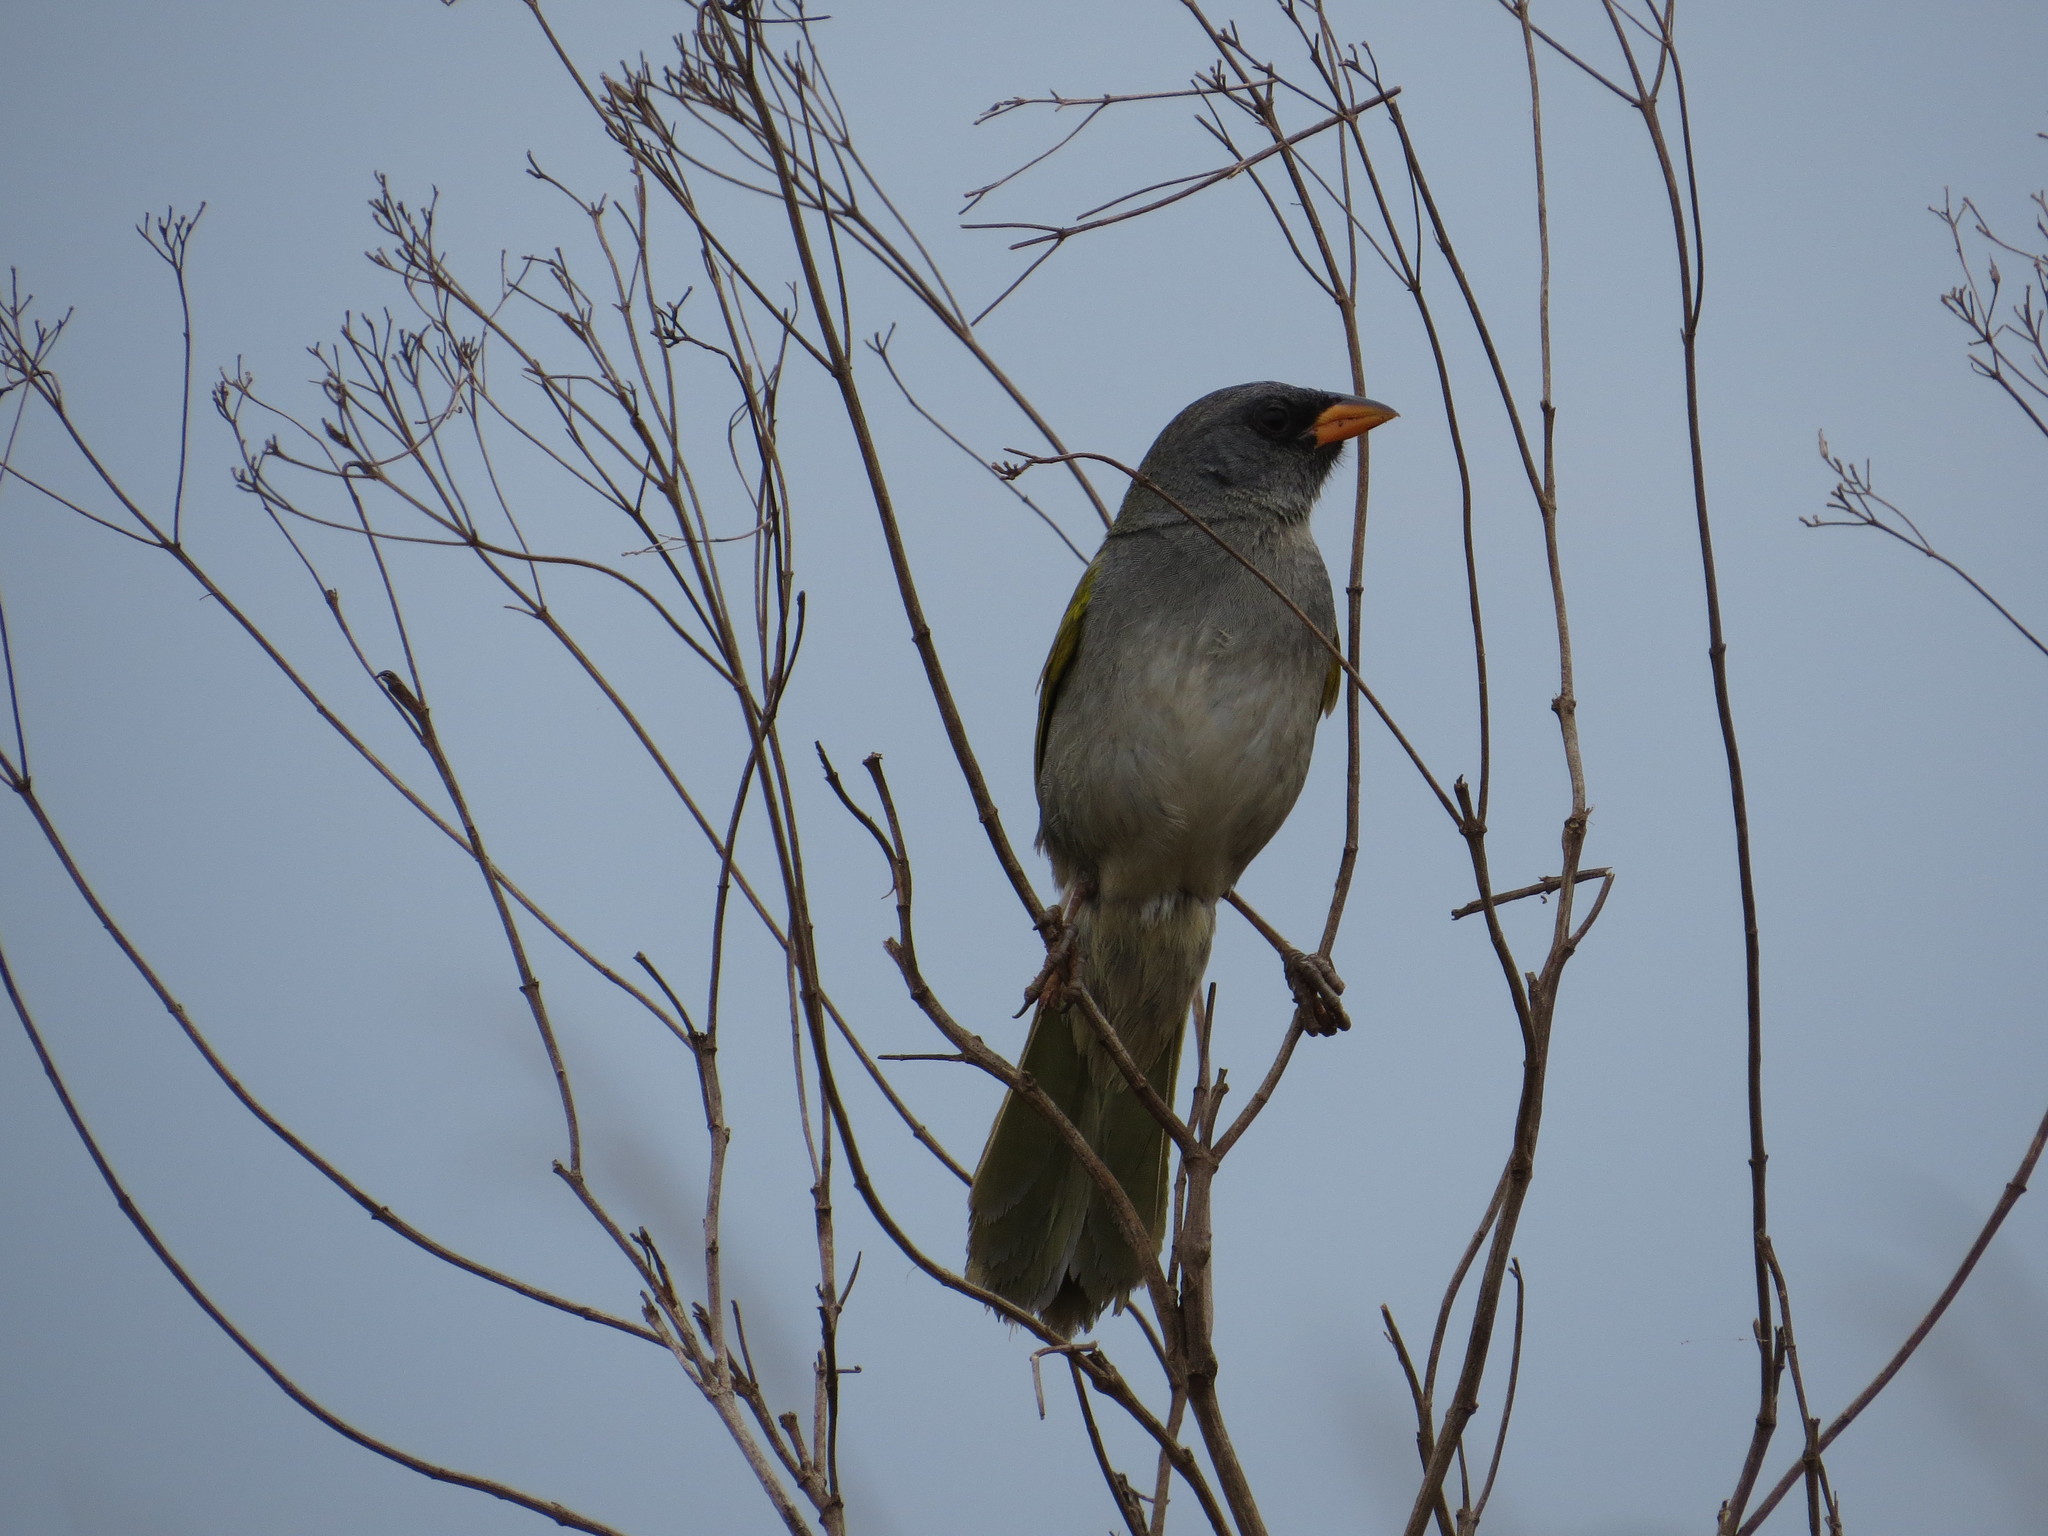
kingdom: Animalia
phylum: Chordata
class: Aves
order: Passeriformes
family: Thraupidae
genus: Embernagra
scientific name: Embernagra platensis
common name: Pampa finch
